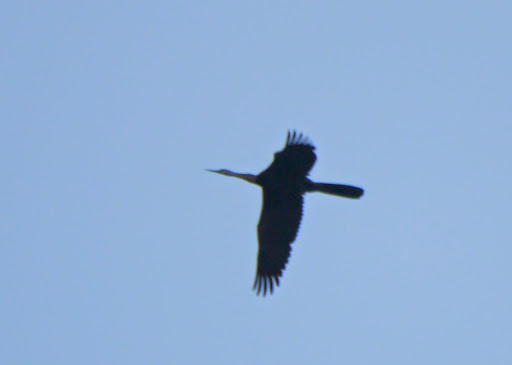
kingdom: Animalia
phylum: Chordata
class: Aves
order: Suliformes
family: Anhingidae
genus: Anhinga
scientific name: Anhinga rufa
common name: African darter
